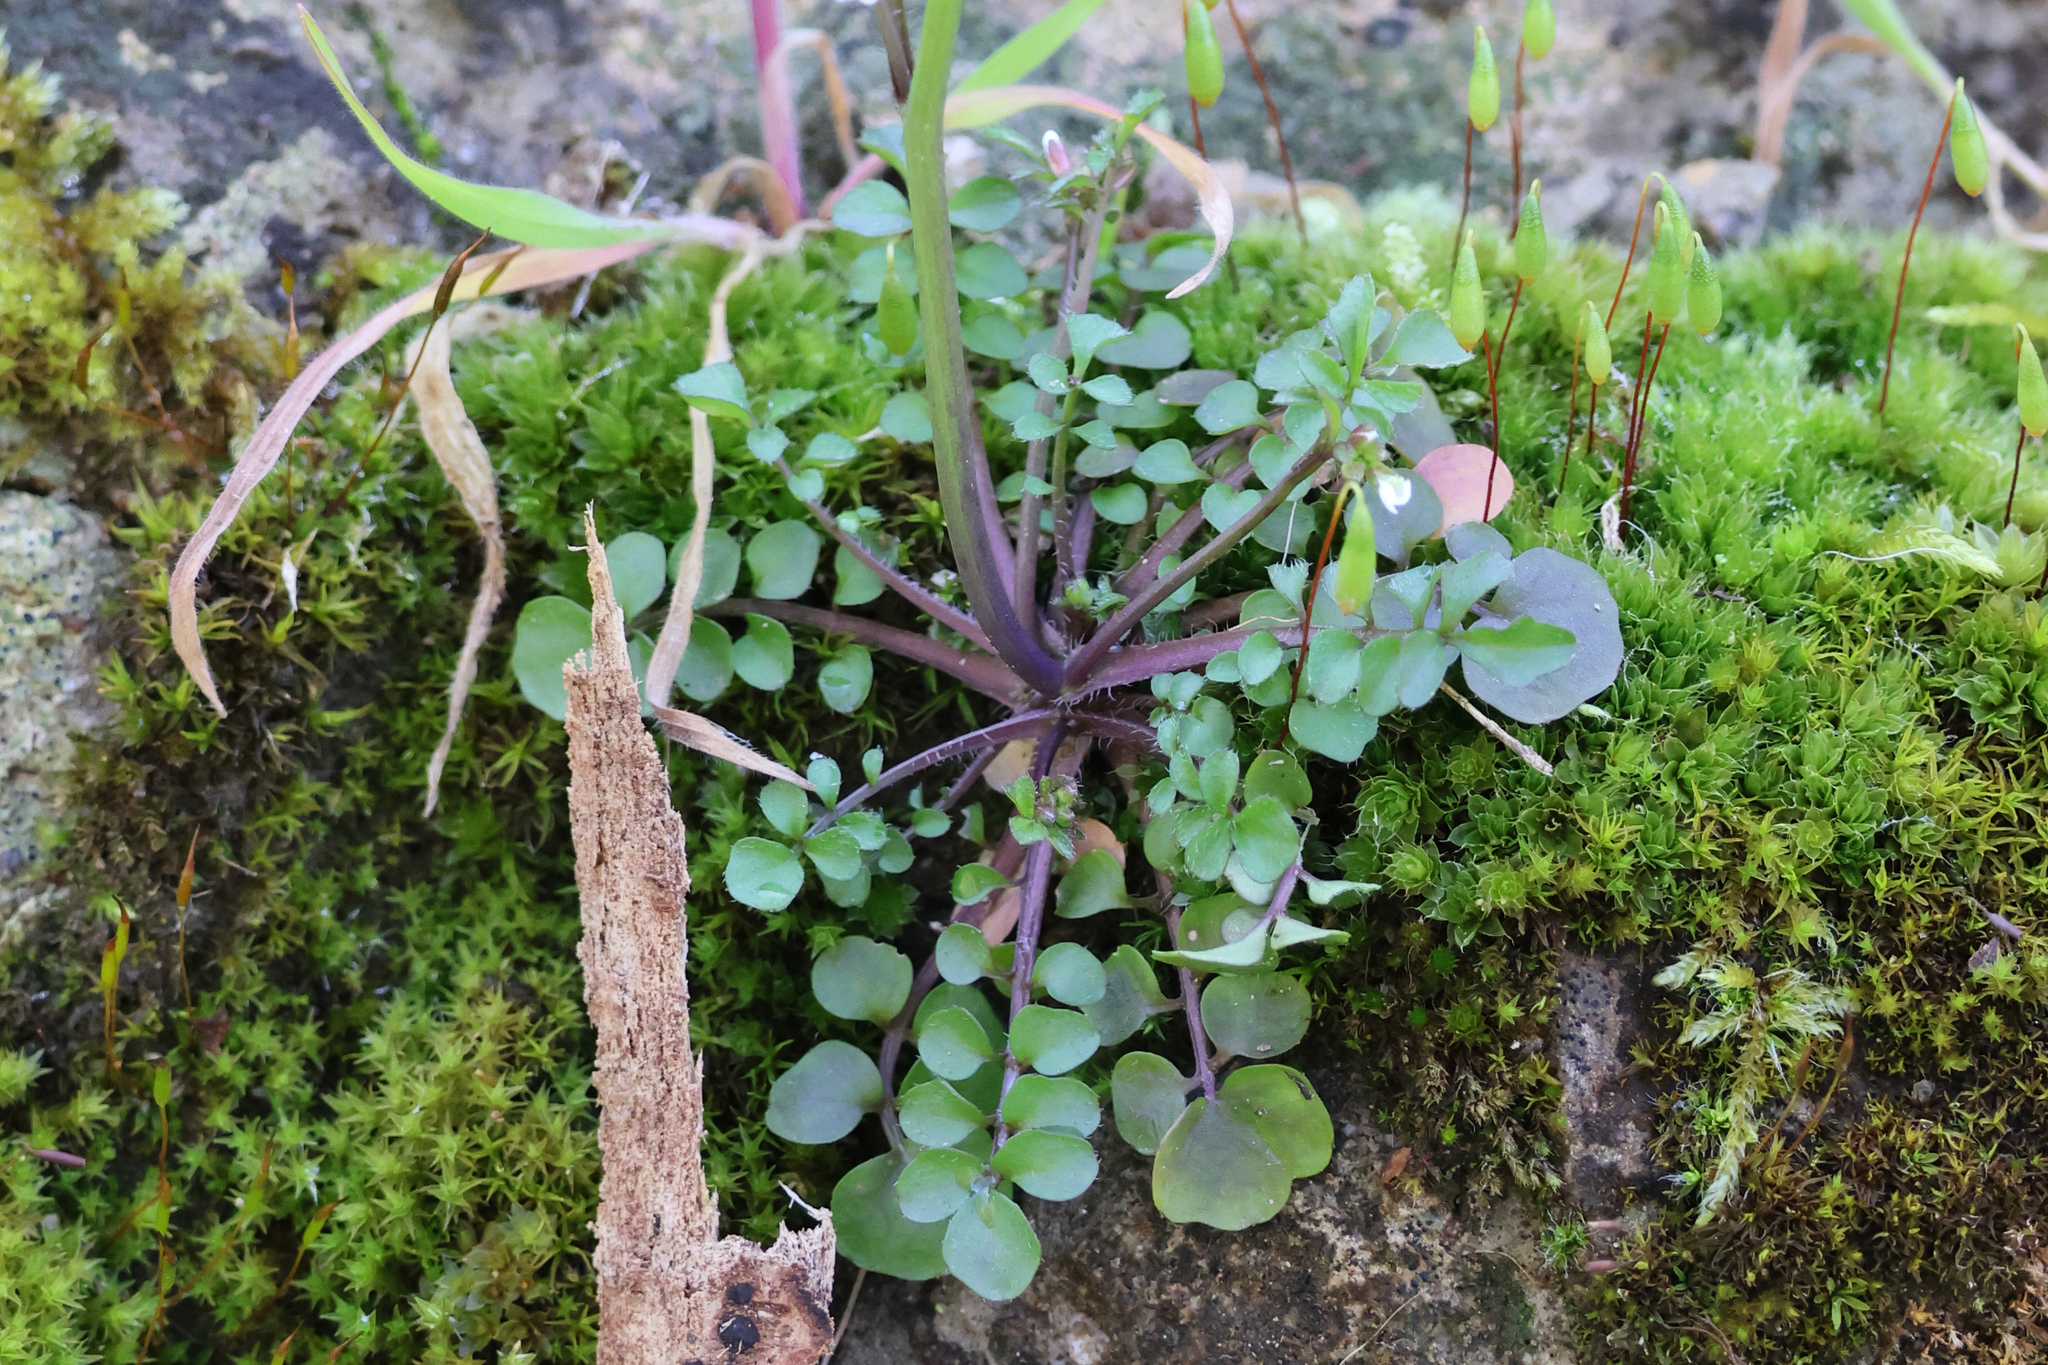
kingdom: Plantae
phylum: Tracheophyta
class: Magnoliopsida
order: Brassicales
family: Brassicaceae
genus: Cardamine
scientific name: Cardamine hirsuta
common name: Hairy bittercress
